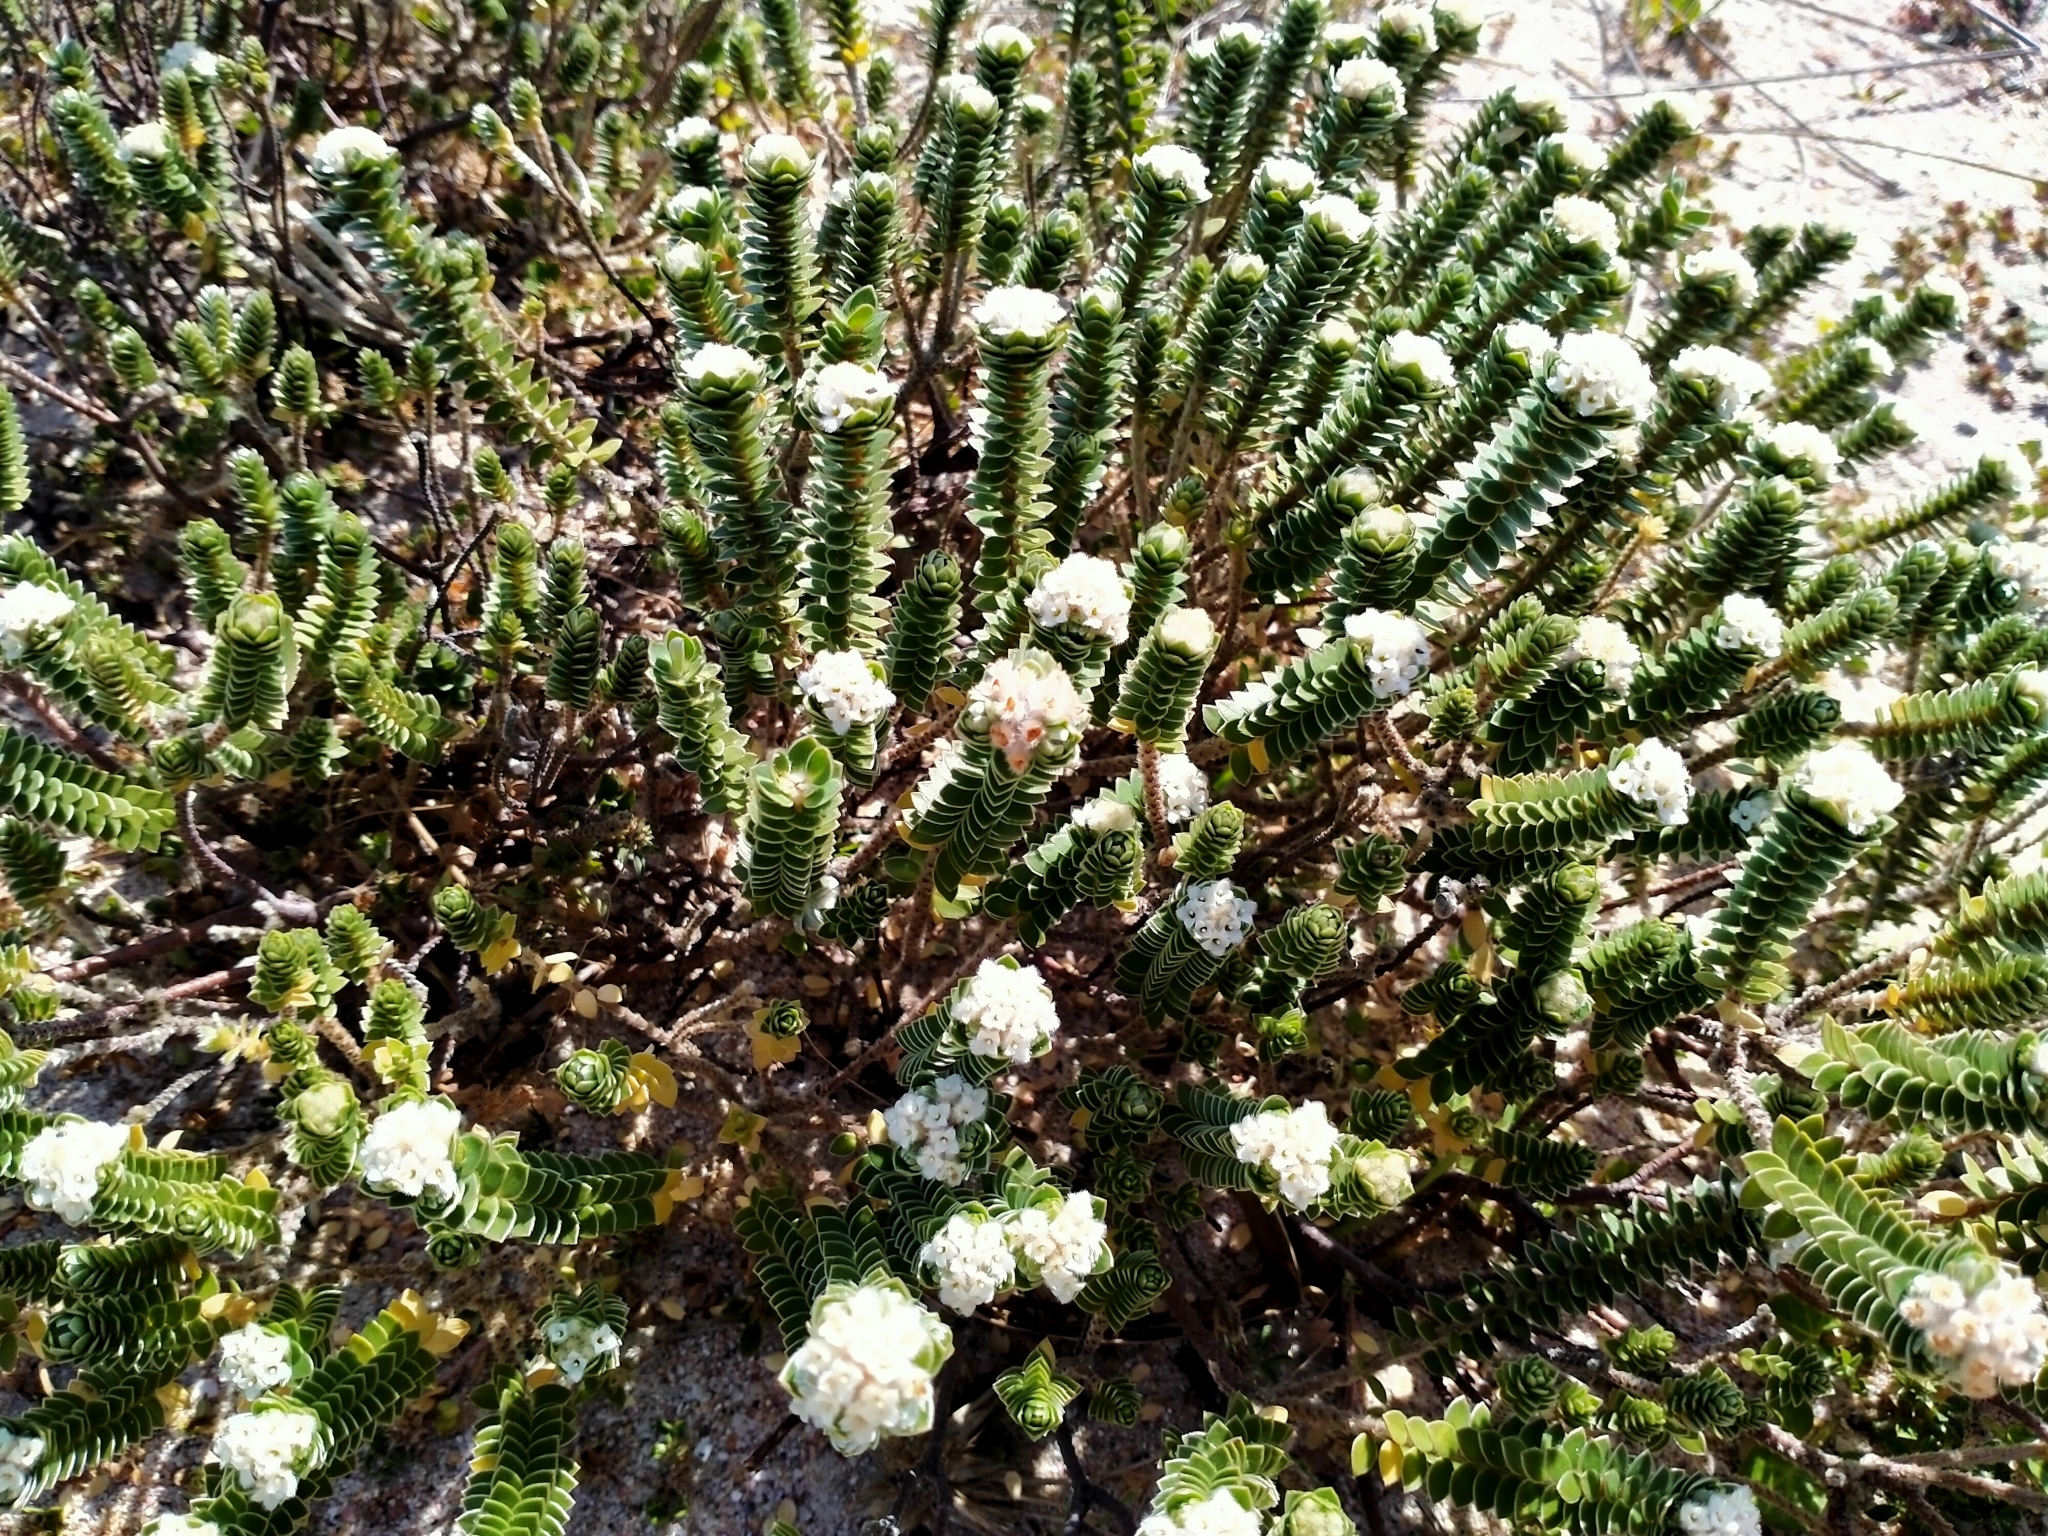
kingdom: Plantae
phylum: Tracheophyta
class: Magnoliopsida
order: Malvales
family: Thymelaeaceae
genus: Pimelea
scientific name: Pimelea villosa
